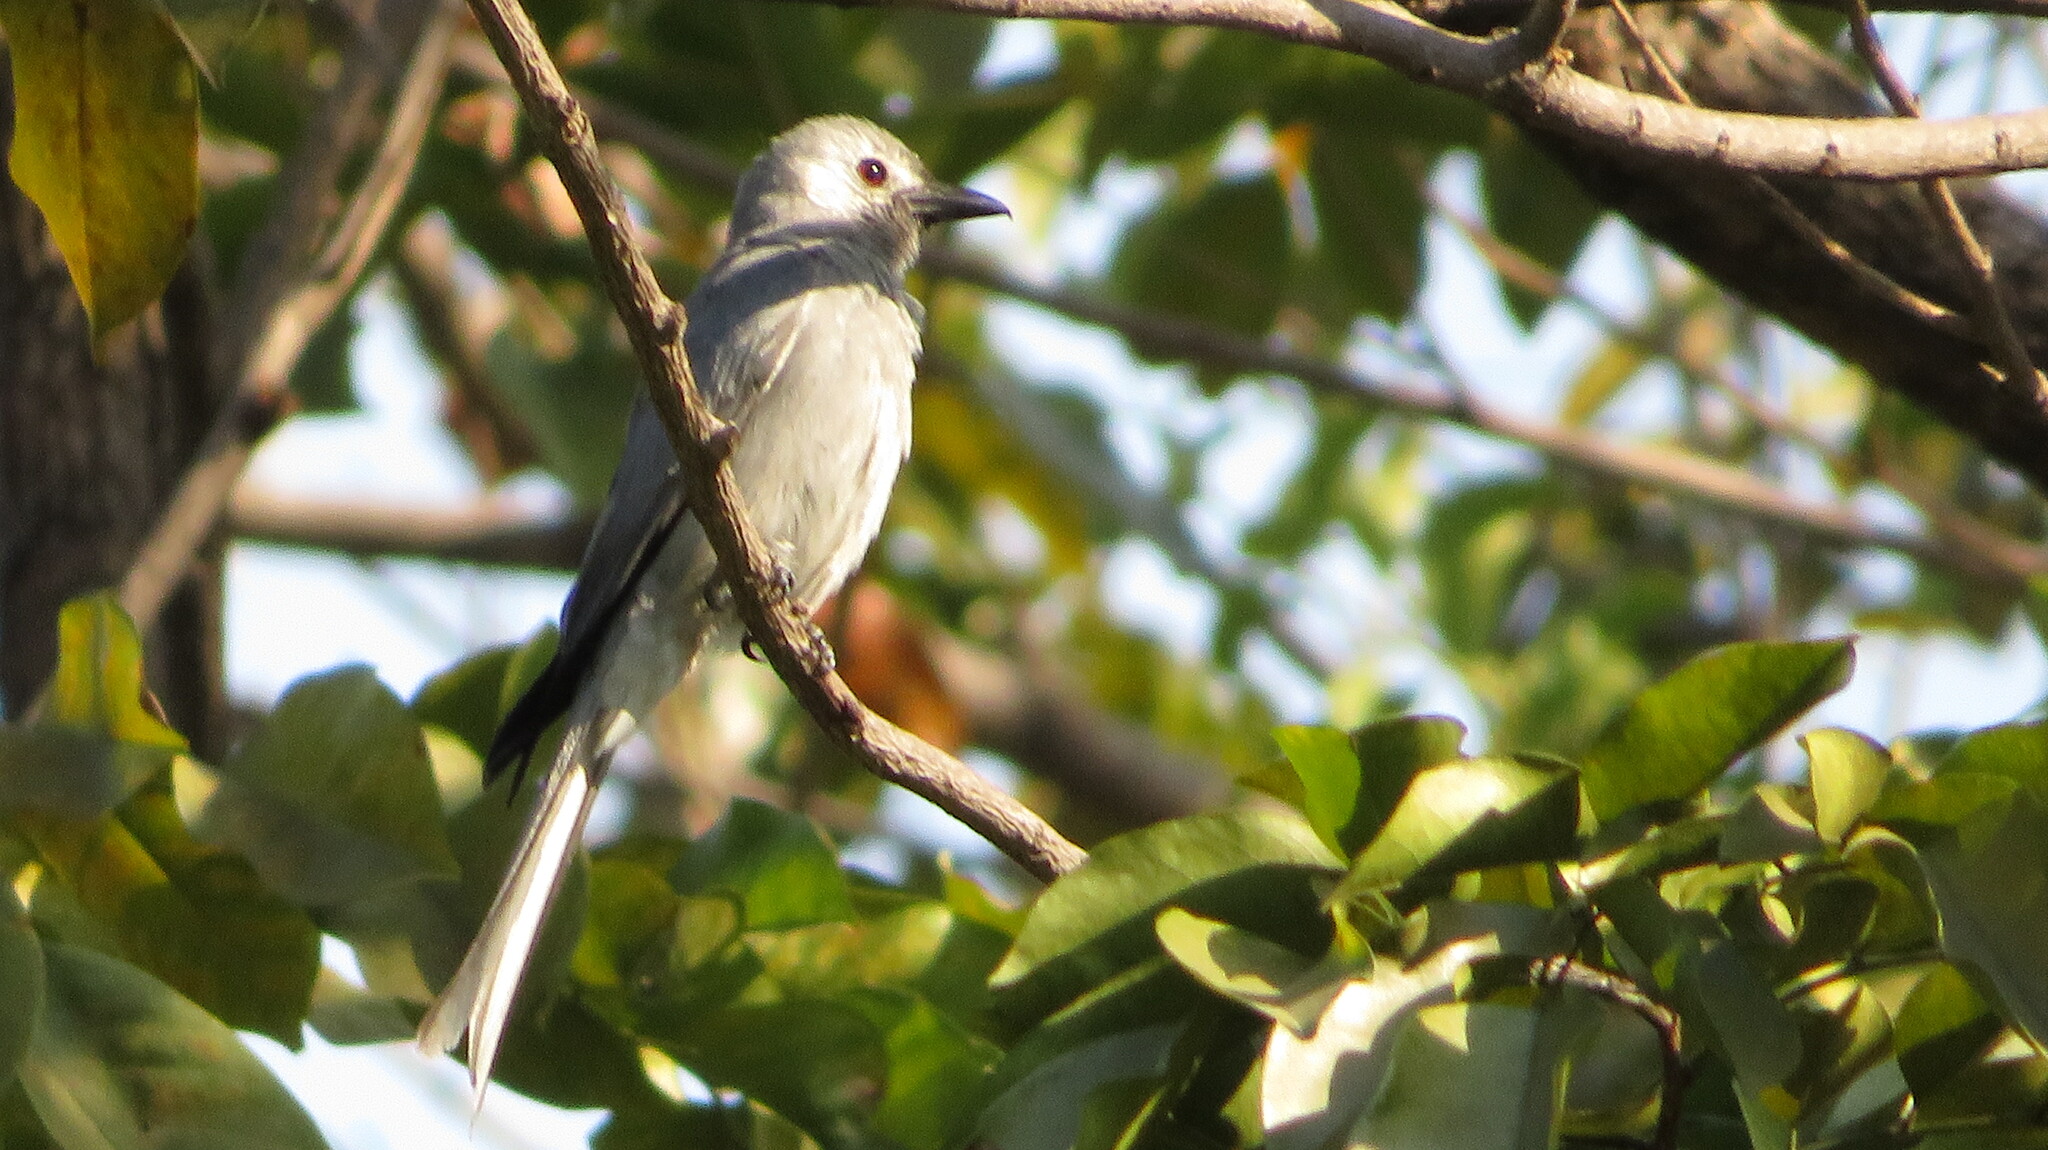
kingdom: Animalia
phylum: Chordata
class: Aves
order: Passeriformes
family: Dicruridae
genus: Dicrurus
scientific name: Dicrurus leucophaeus
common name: Ashy drongo
